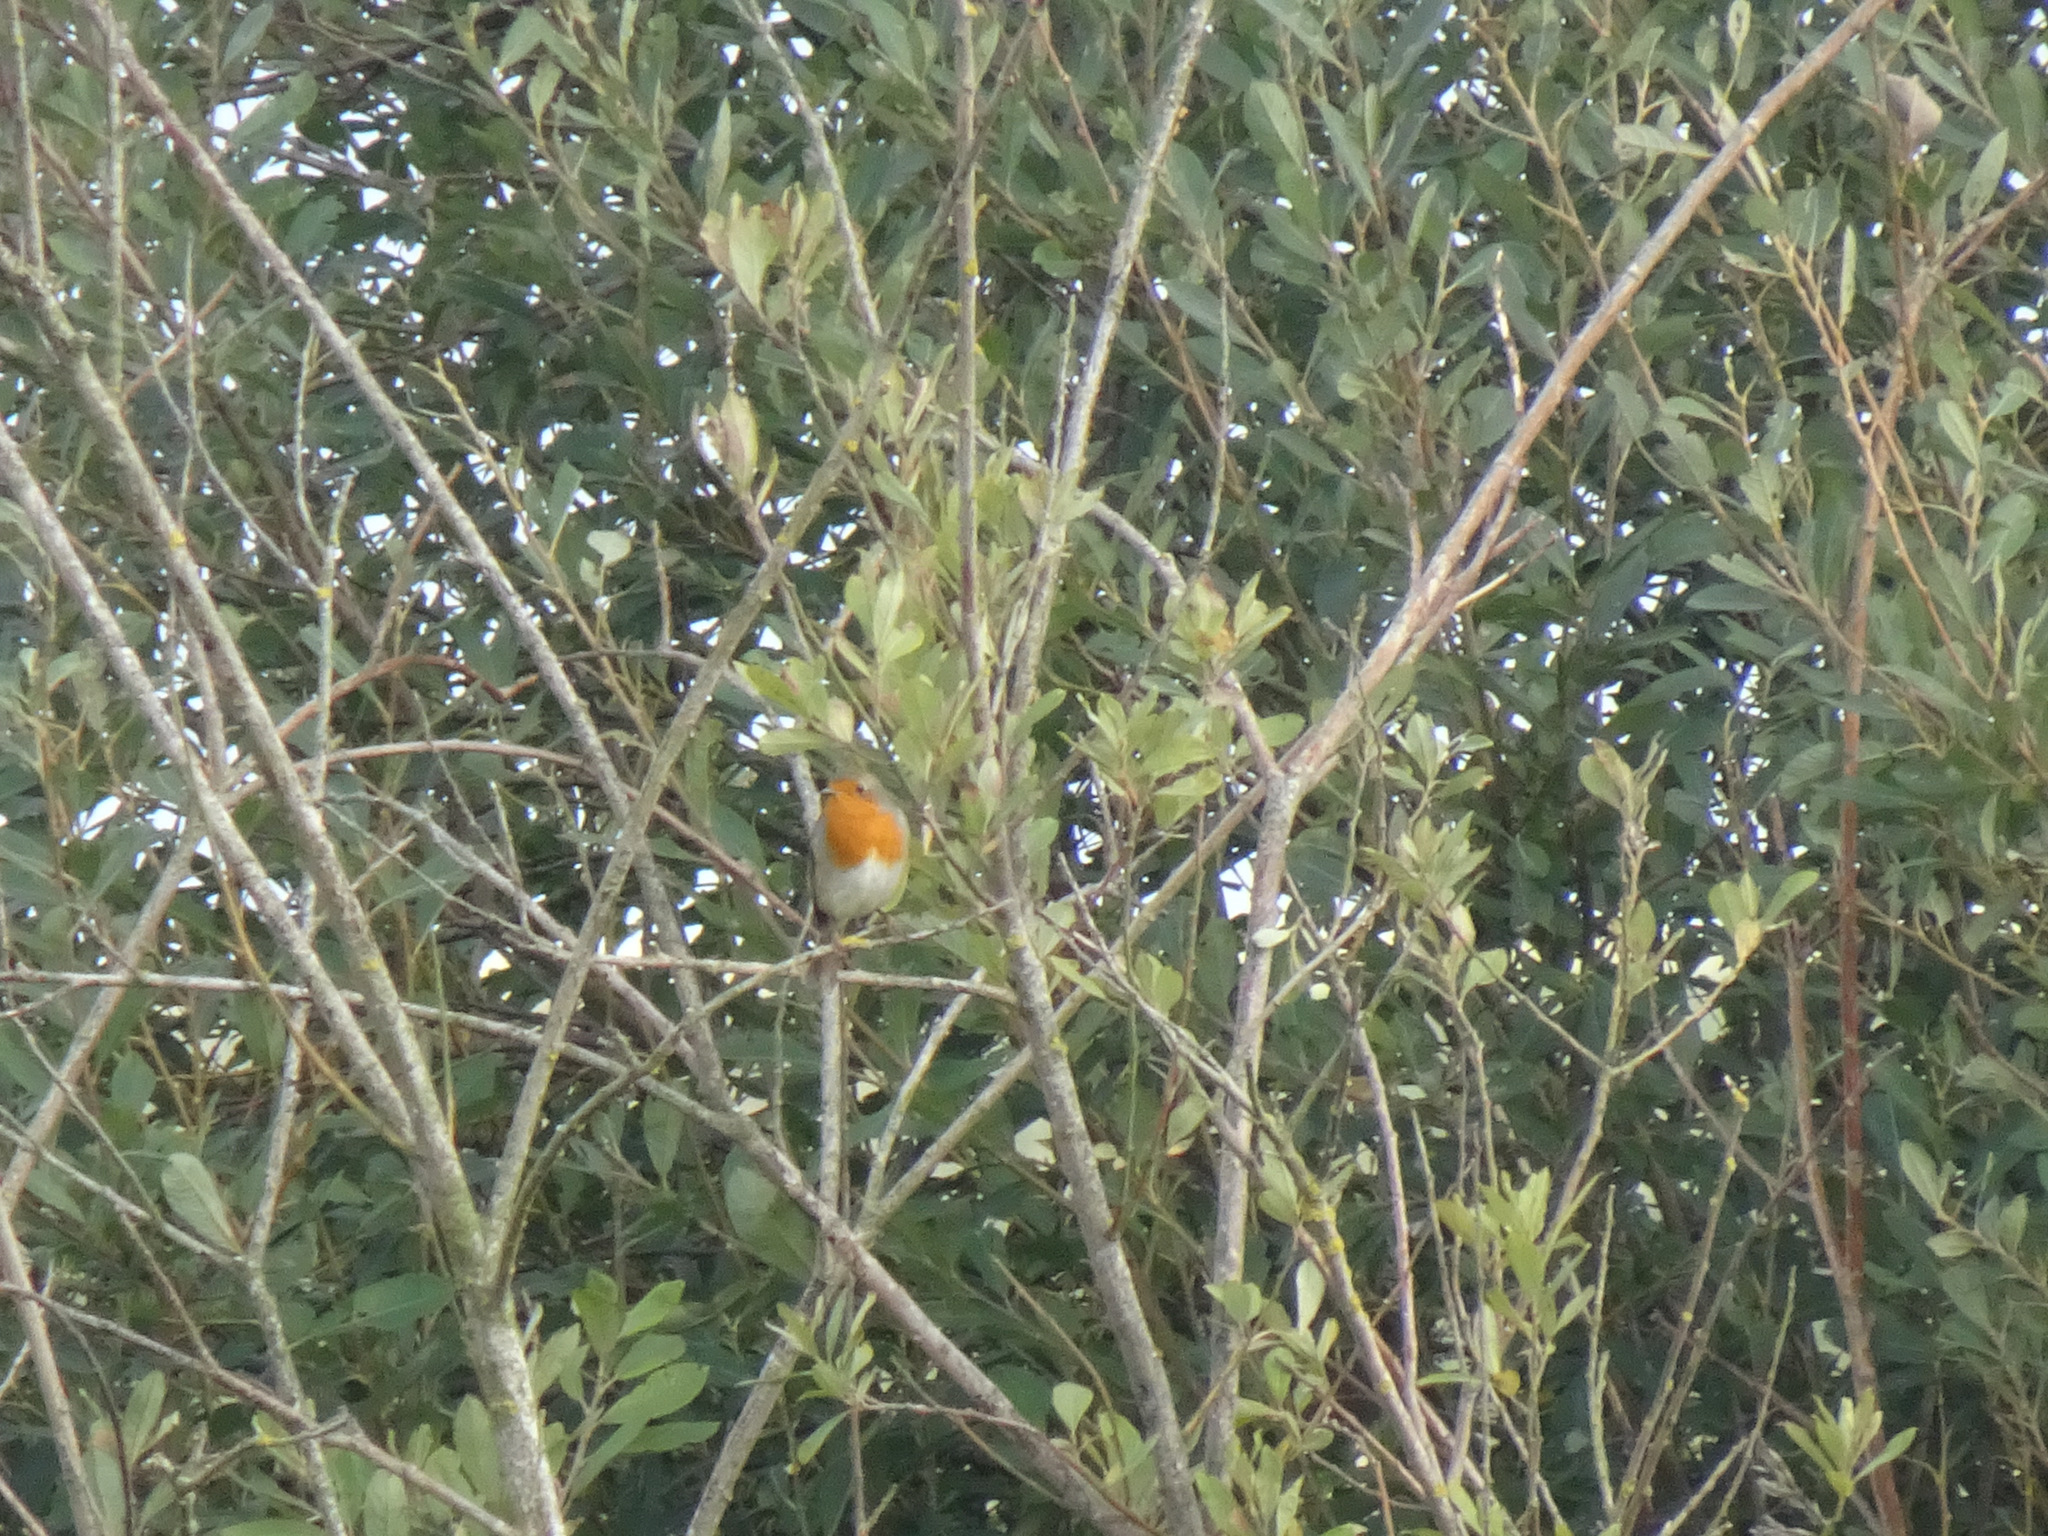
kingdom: Animalia
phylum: Chordata
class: Aves
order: Passeriformes
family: Muscicapidae
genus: Erithacus
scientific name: Erithacus rubecula
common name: European robin
